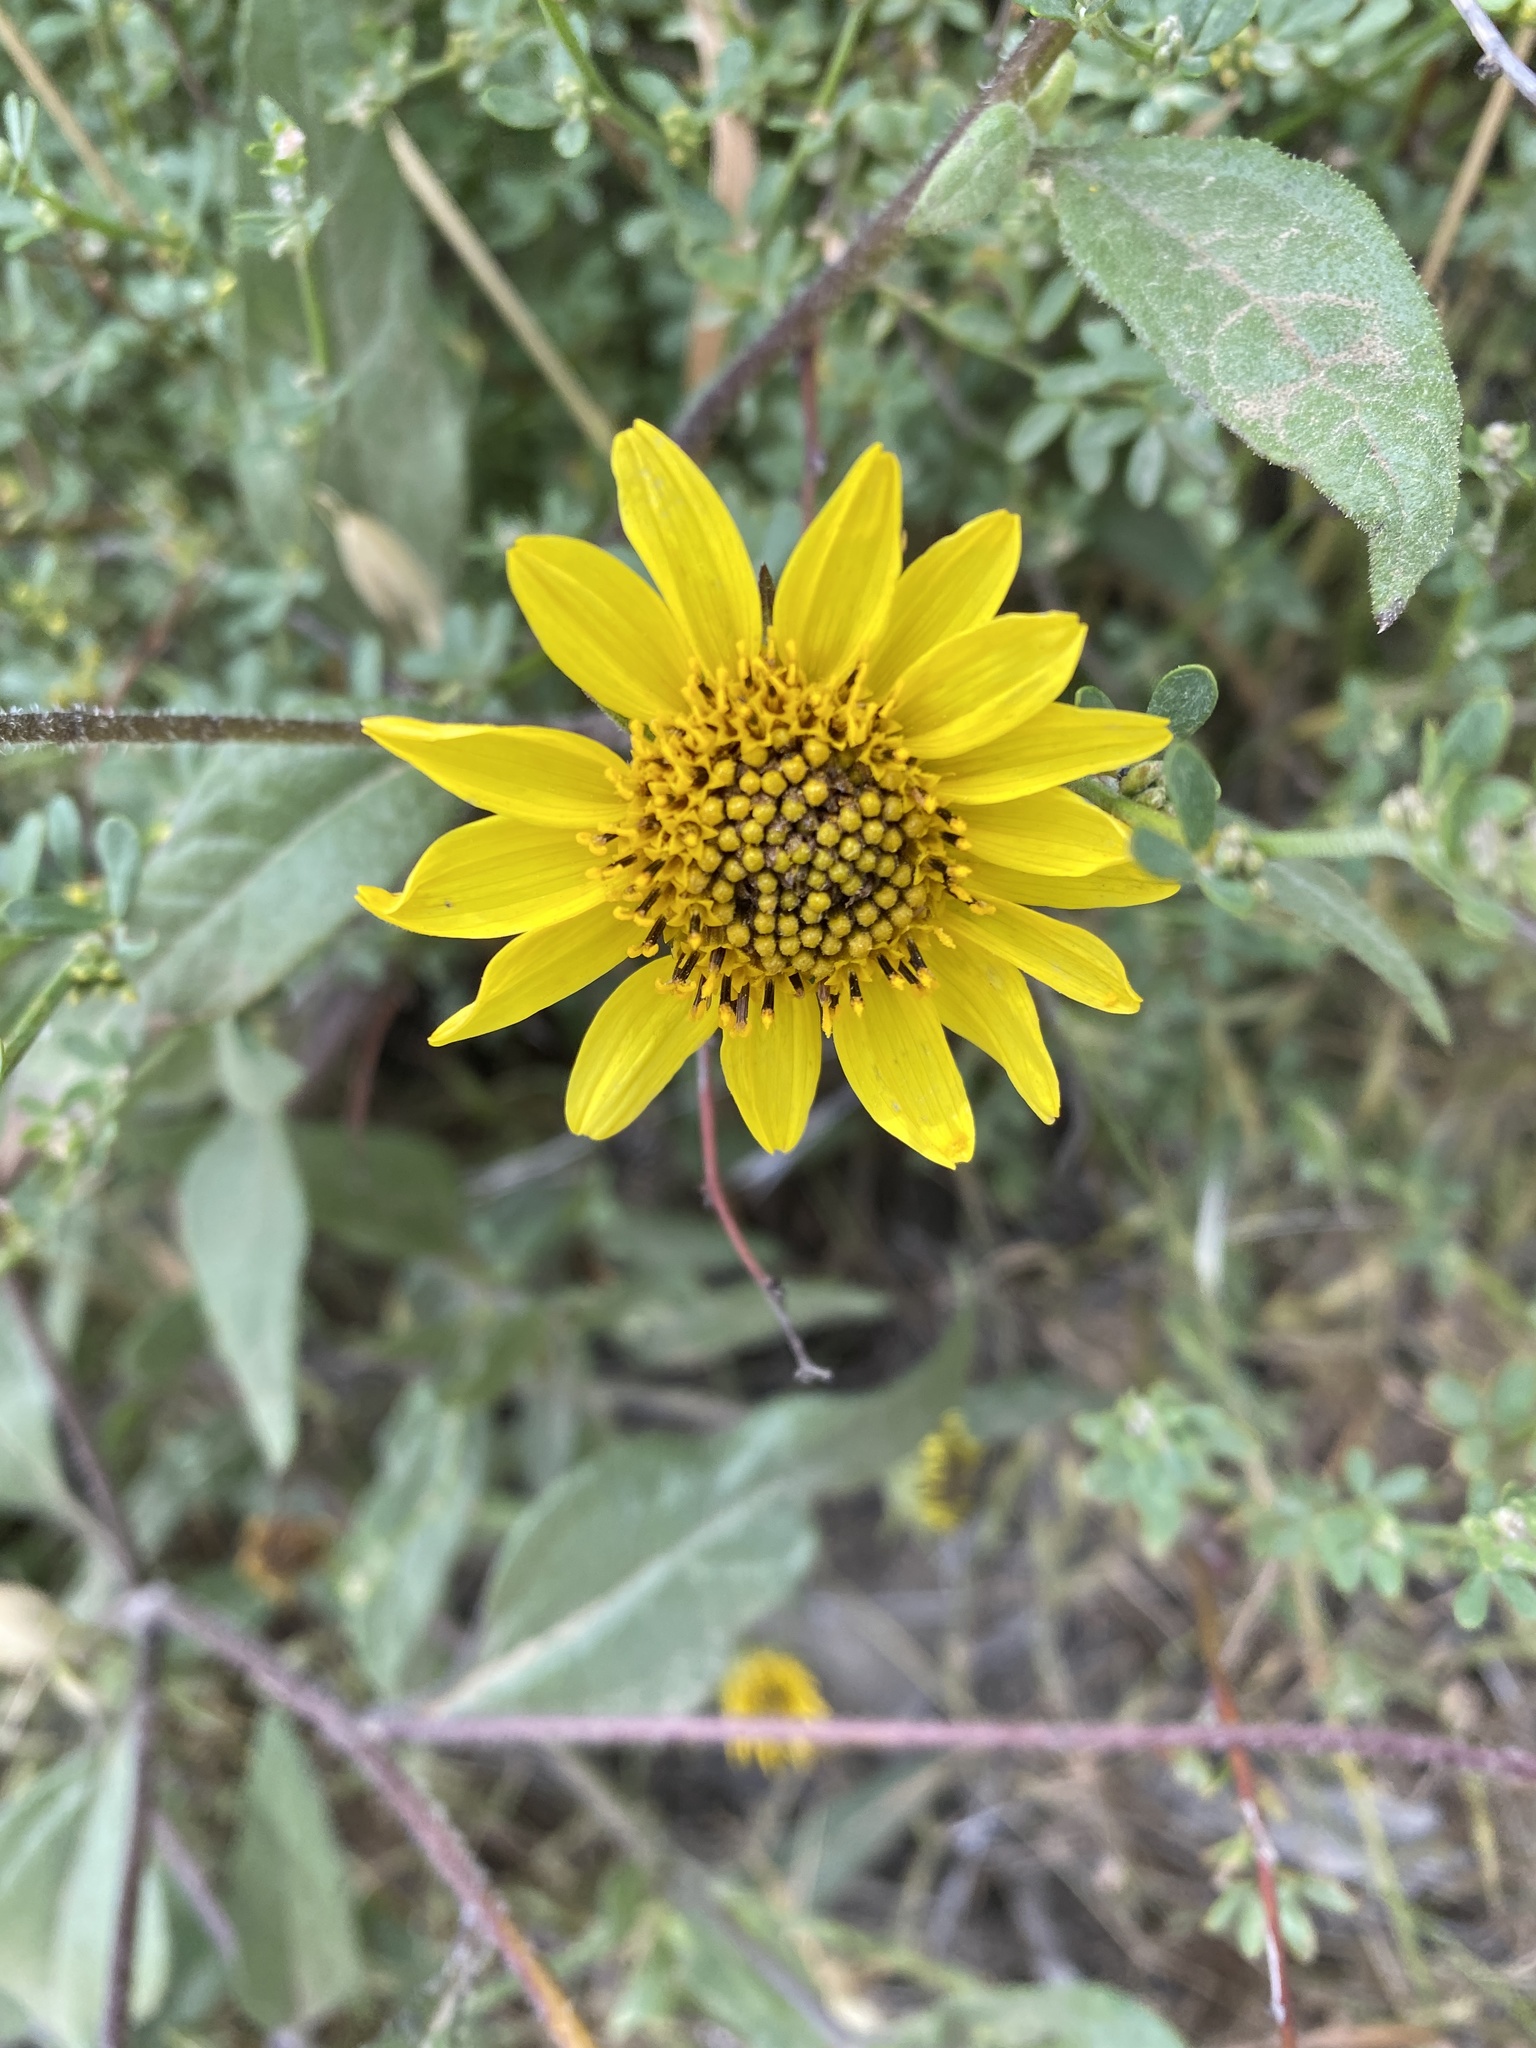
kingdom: Plantae
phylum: Tracheophyta
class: Magnoliopsida
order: Asterales
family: Asteraceae
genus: Helianthus
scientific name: Helianthus gracilentus
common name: Slender sunflower
